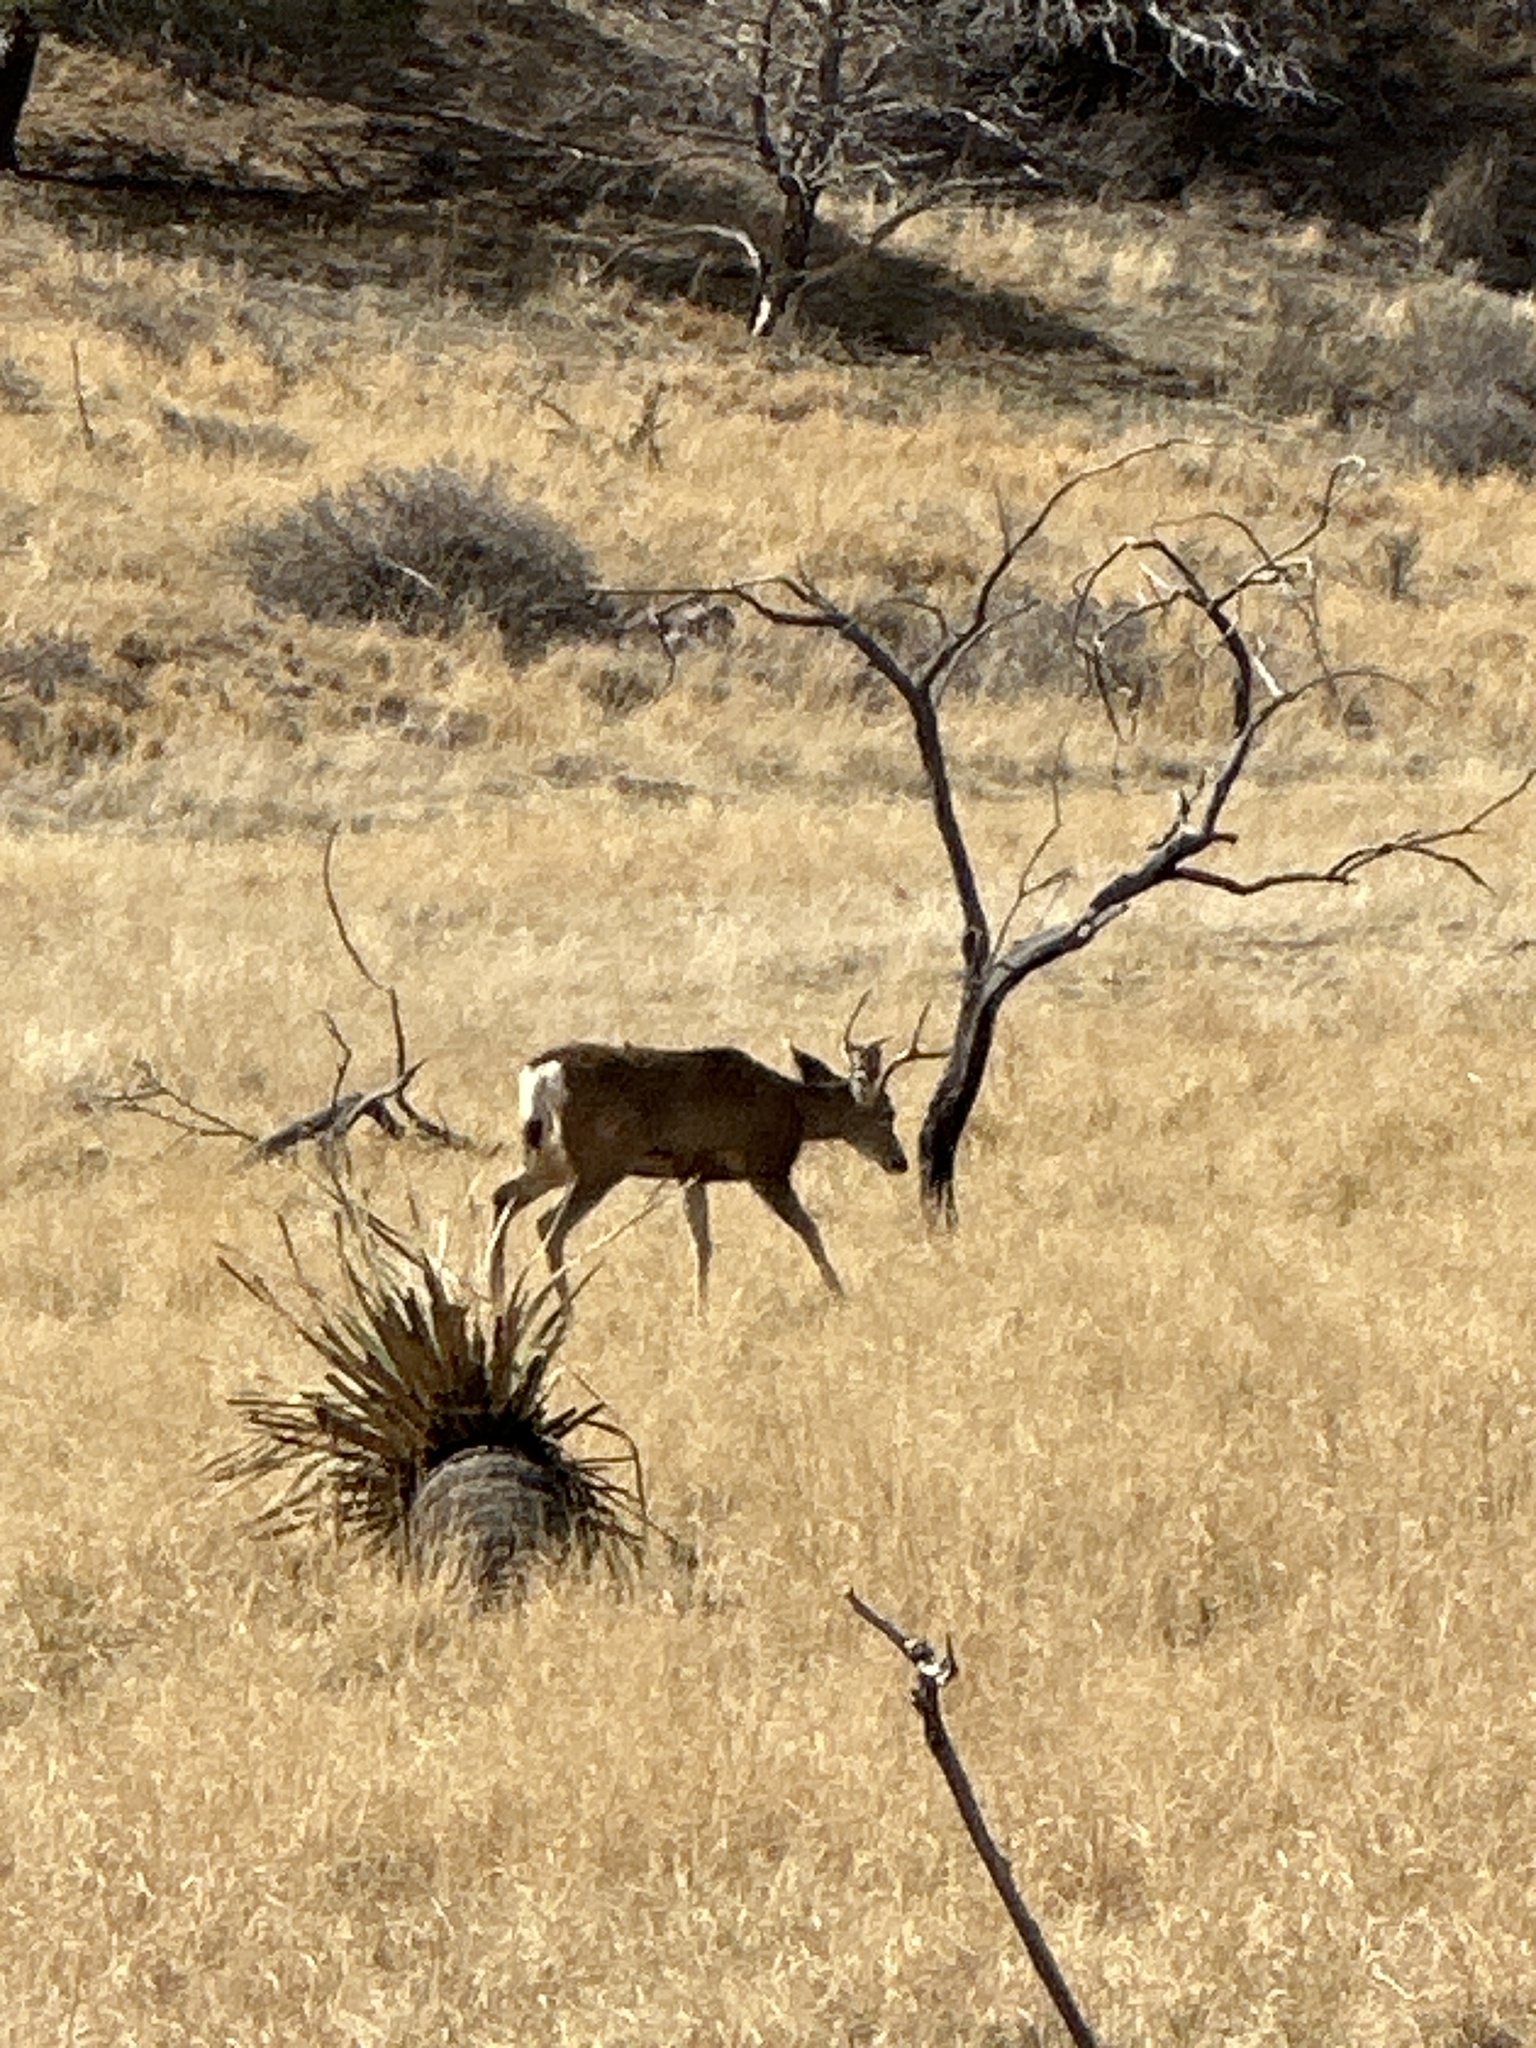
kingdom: Animalia
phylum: Chordata
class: Mammalia
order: Artiodactyla
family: Cervidae
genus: Odocoileus
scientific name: Odocoileus hemionus
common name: Mule deer
